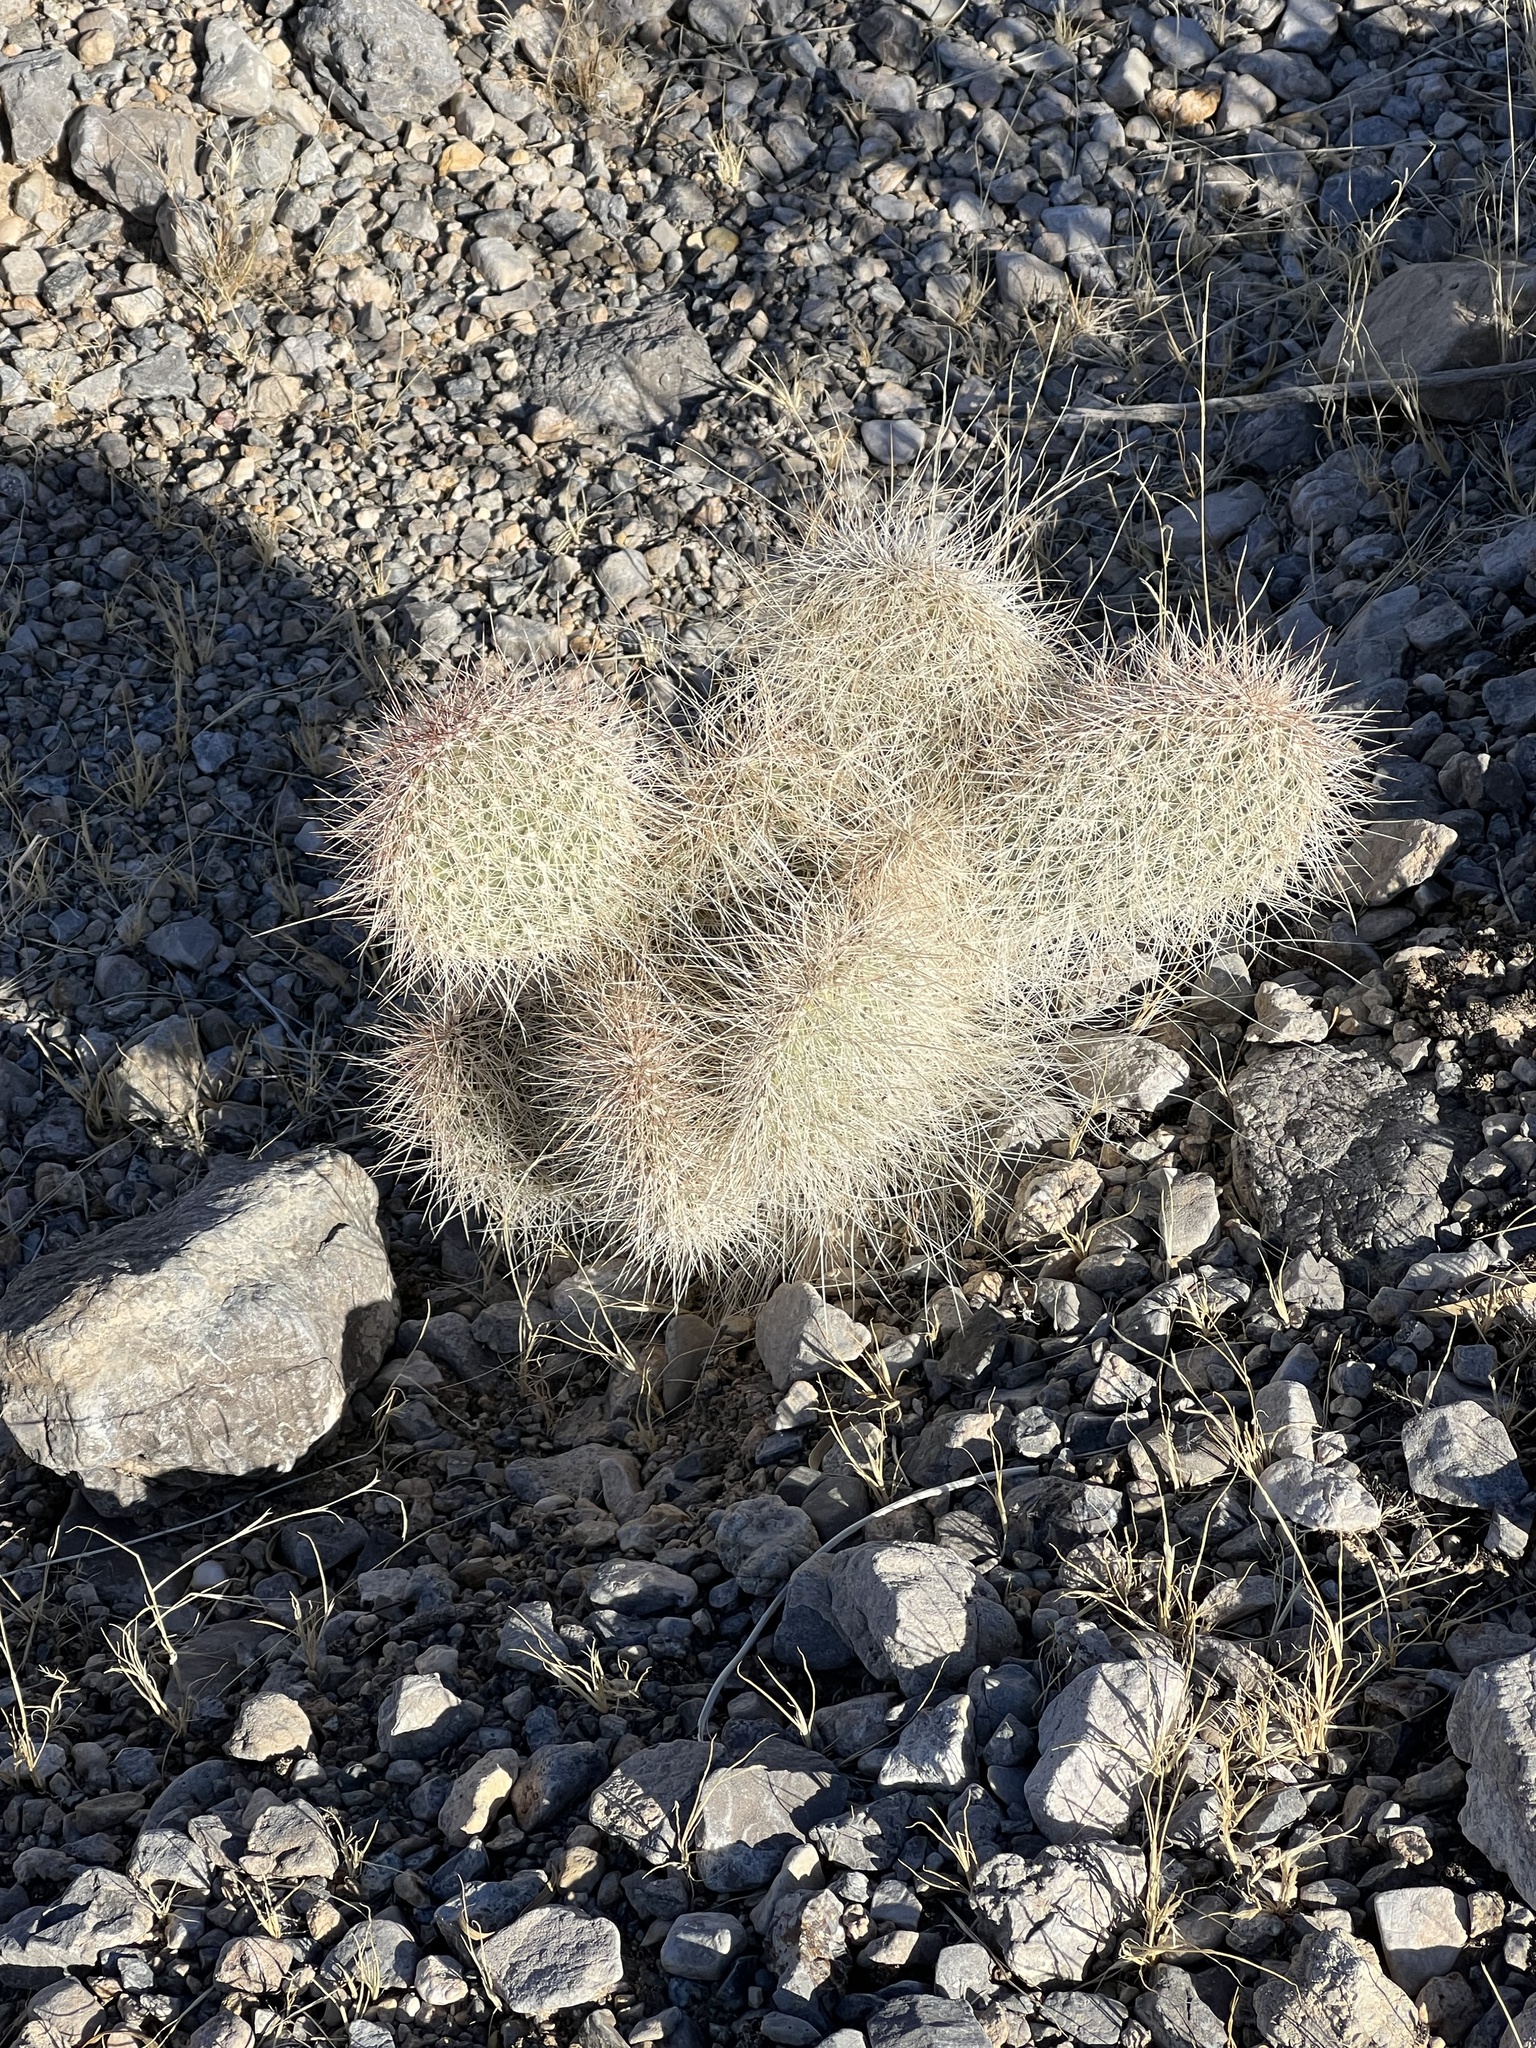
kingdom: Plantae
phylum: Tracheophyta
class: Magnoliopsida
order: Caryophyllales
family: Cactaceae
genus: Opuntia
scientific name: Opuntia polyacantha
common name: Plains prickly-pear
